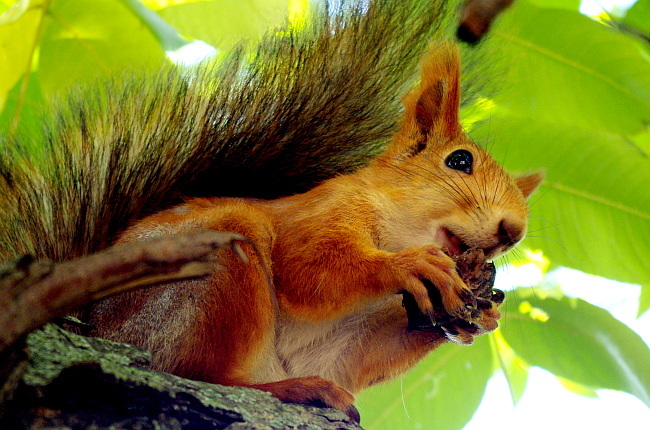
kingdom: Animalia
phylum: Chordata
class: Mammalia
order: Rodentia
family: Sciuridae
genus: Sciurus
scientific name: Sciurus vulgaris
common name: Eurasian red squirrel
